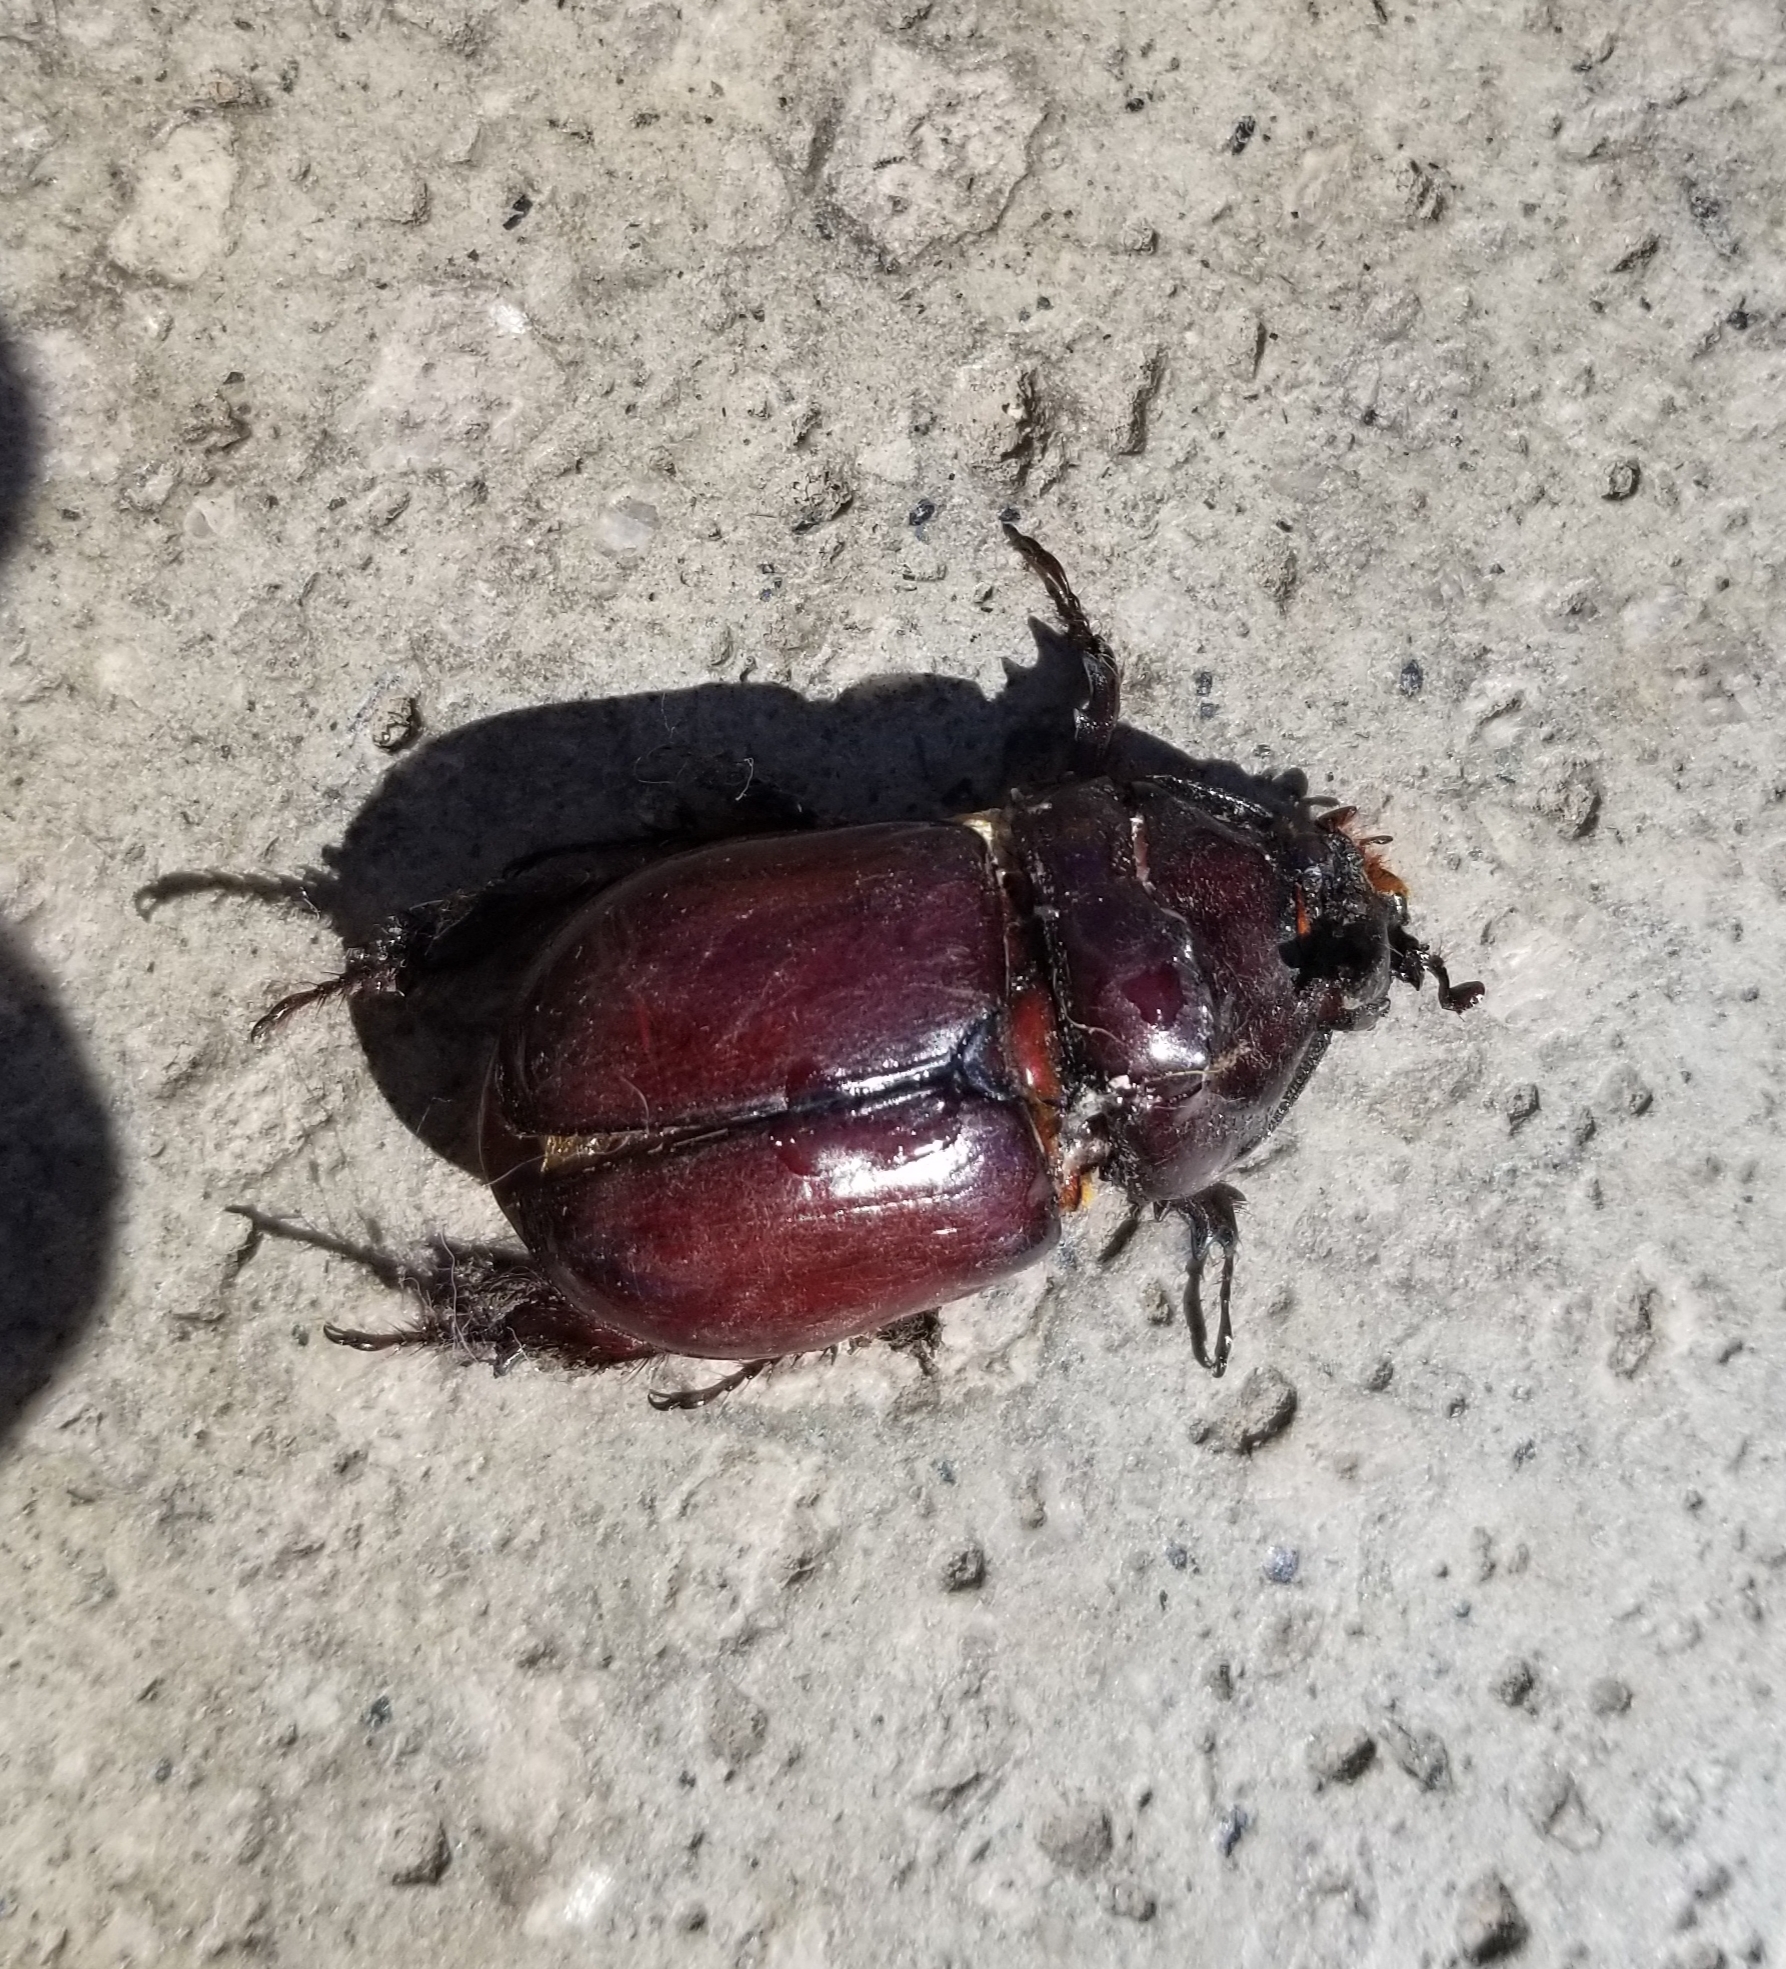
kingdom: Animalia
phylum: Arthropoda
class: Insecta
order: Coleoptera
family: Scarabaeidae
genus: Oryctes
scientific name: Oryctes nasicornis
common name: European rhinoceros beetle
